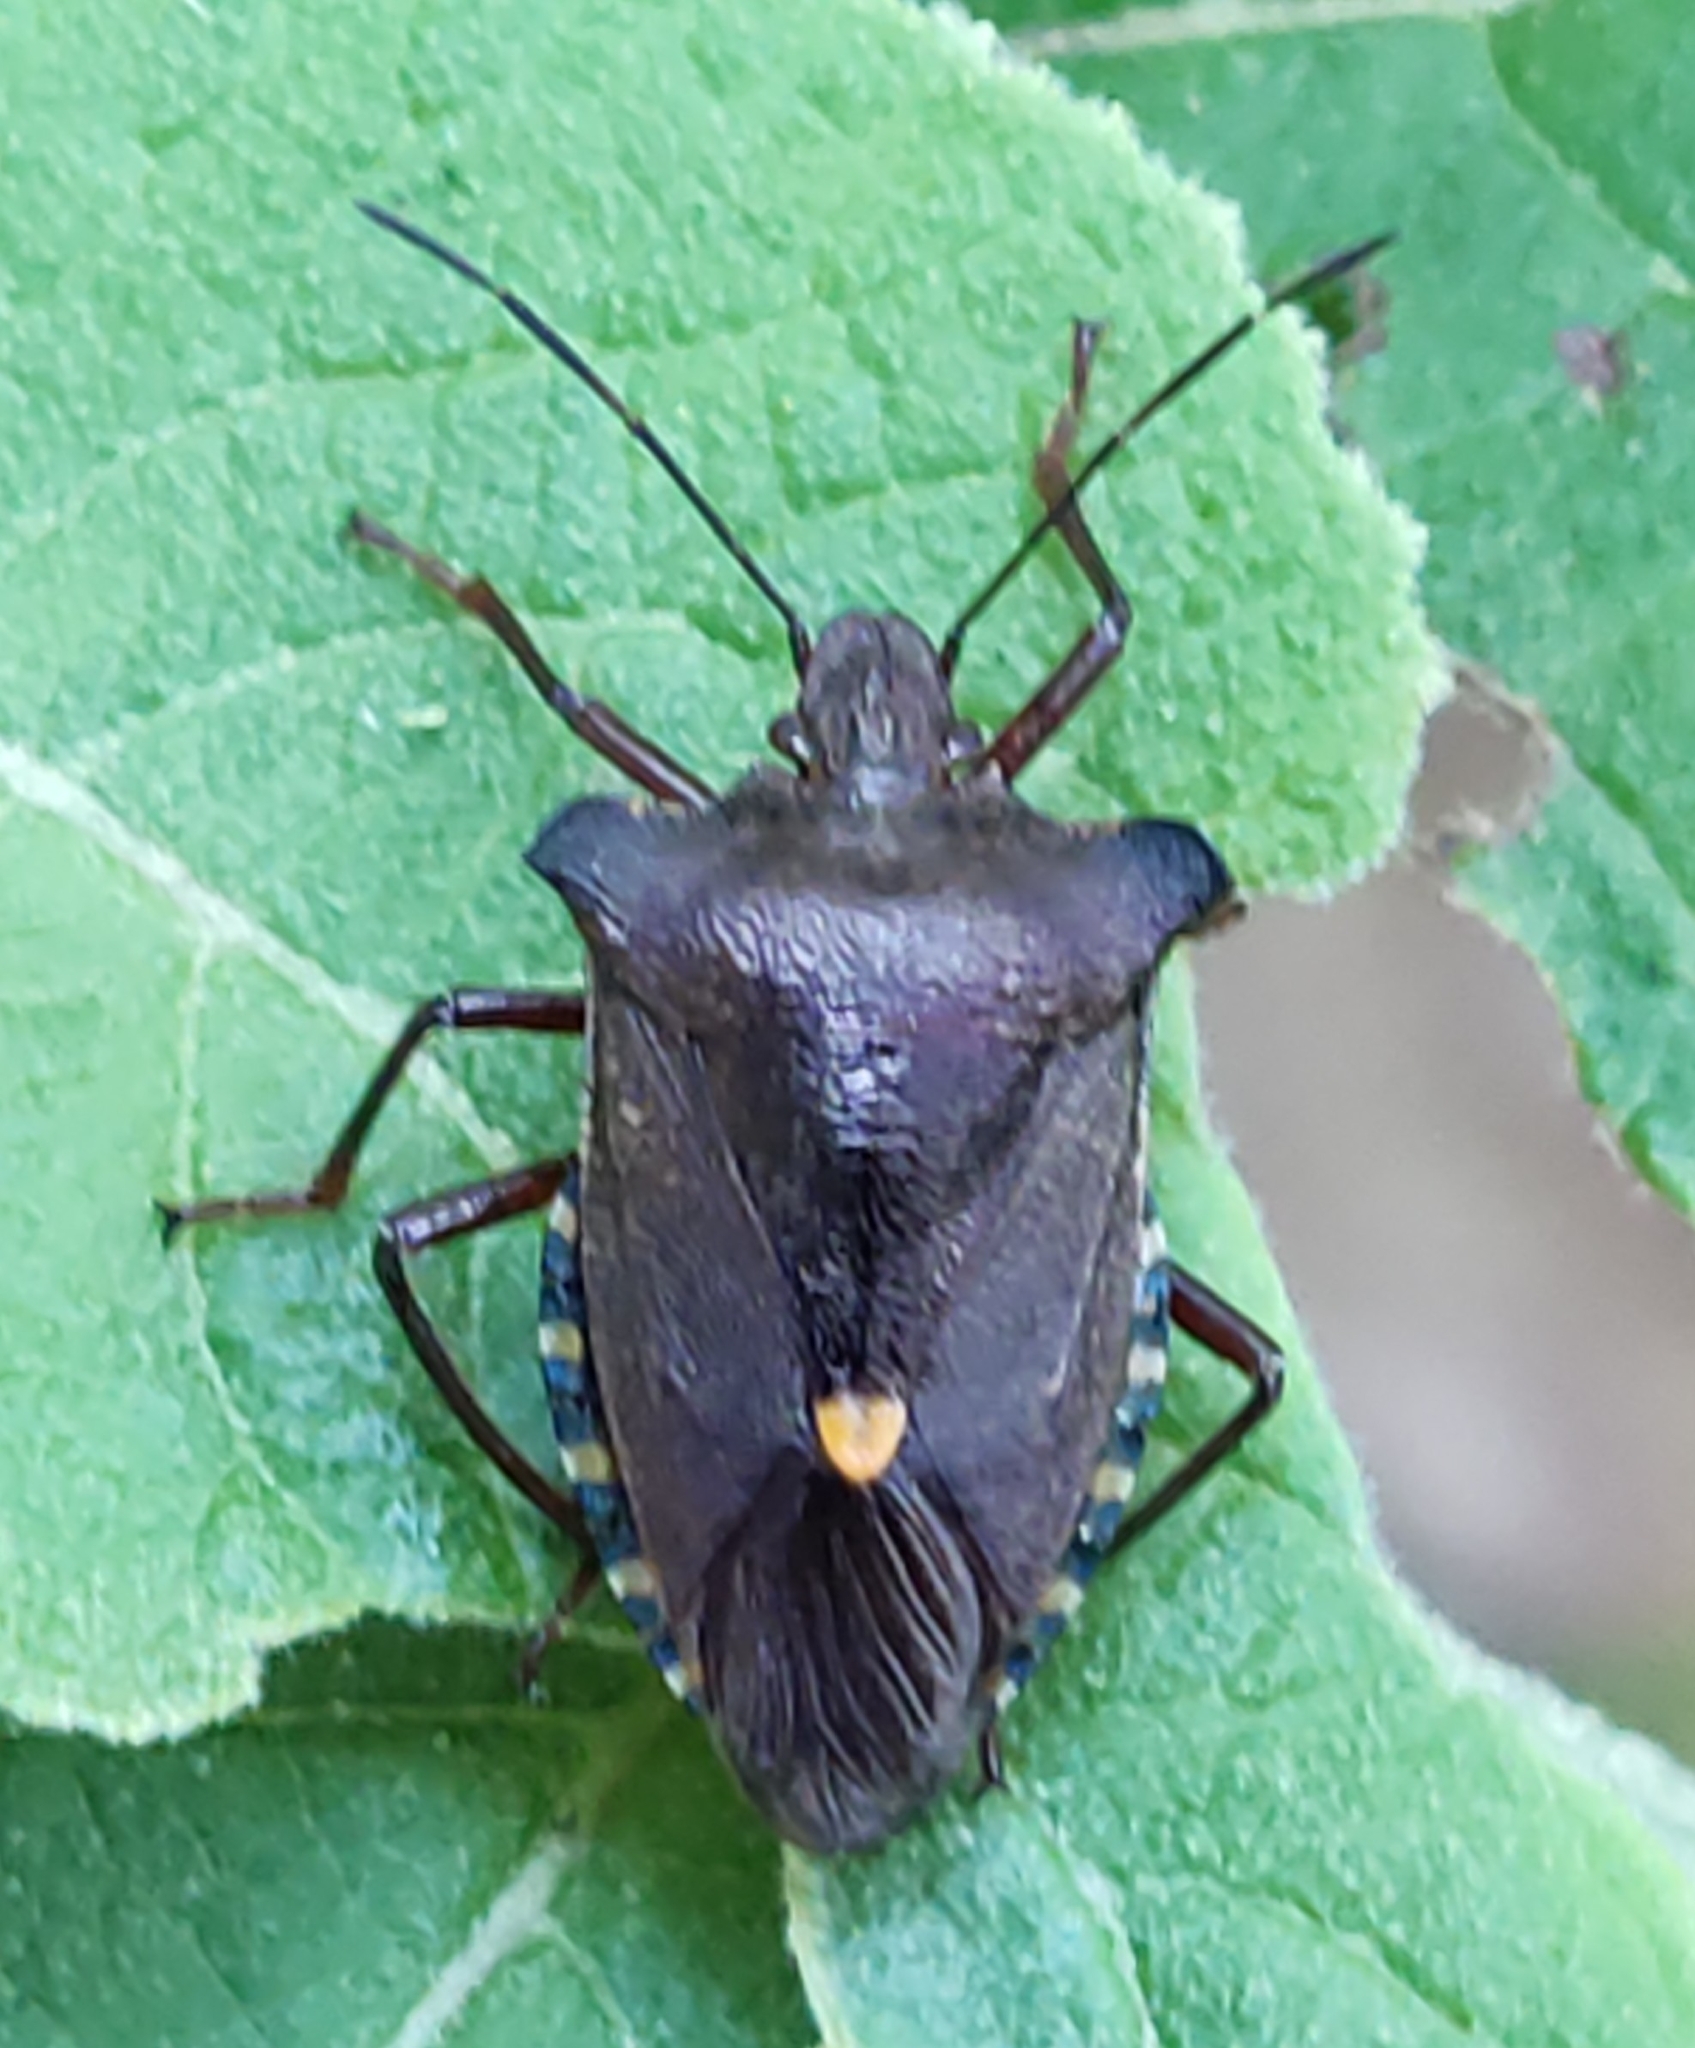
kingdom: Animalia
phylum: Arthropoda
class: Insecta
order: Hemiptera
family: Pentatomidae
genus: Pentatoma
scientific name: Pentatoma rufipes
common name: Forest bug
